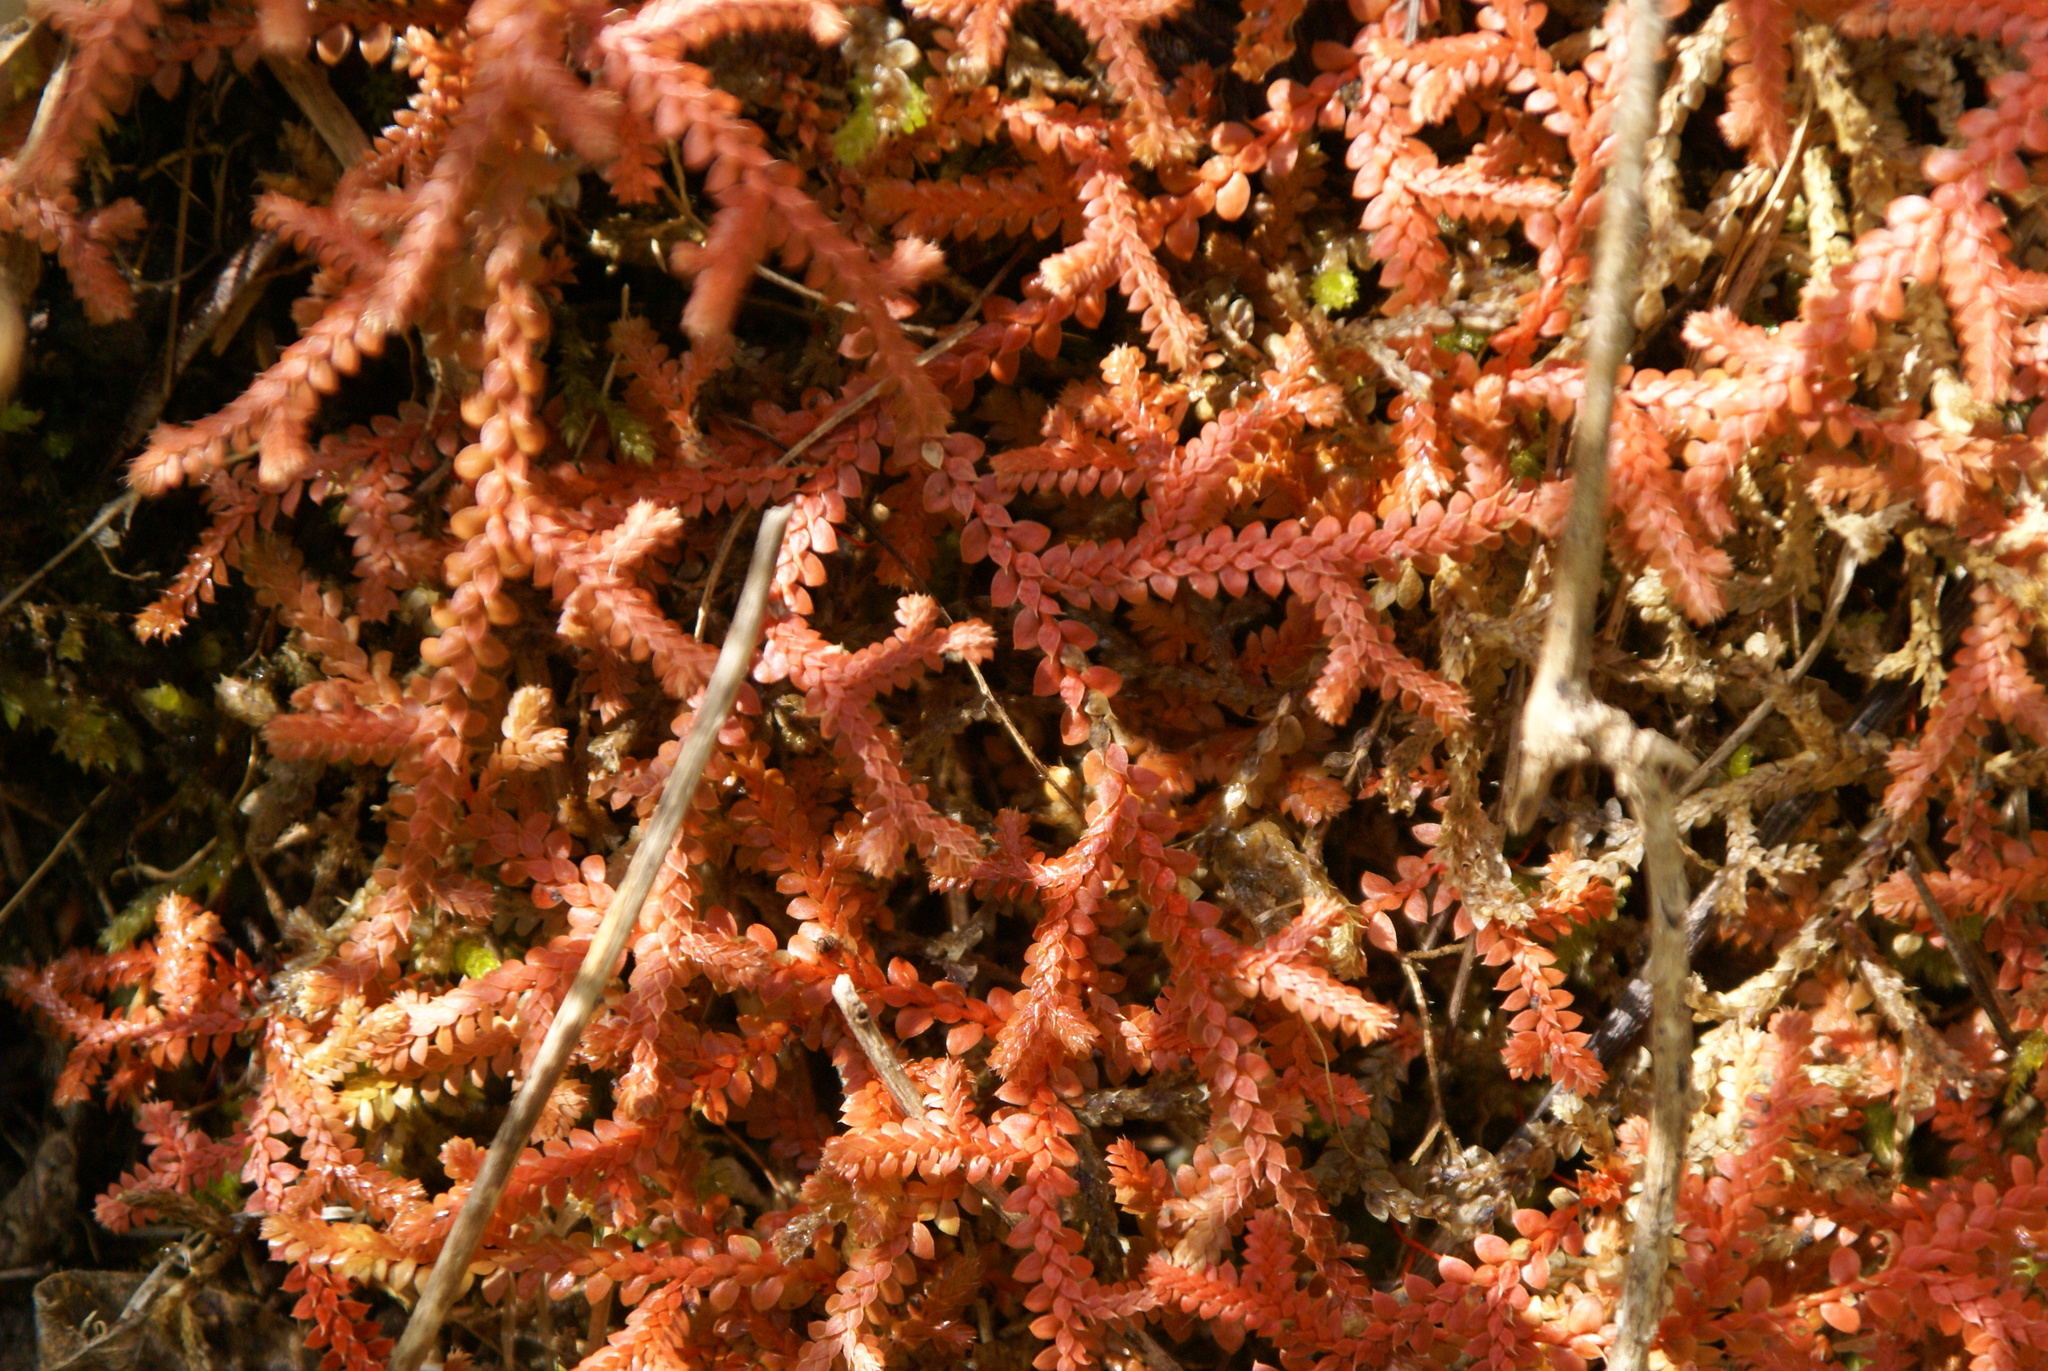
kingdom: Plantae
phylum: Tracheophyta
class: Lycopodiopsida
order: Selaginellales
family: Selaginellaceae
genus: Selaginella
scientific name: Selaginella denticulata
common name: Toothed-leaved clubmoss
